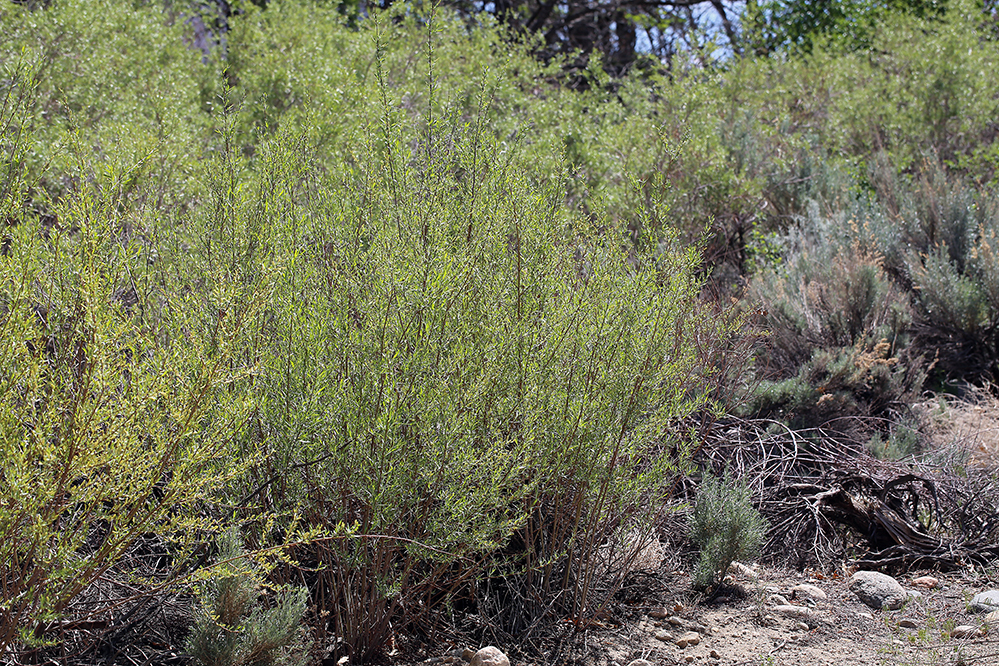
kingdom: Plantae
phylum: Tracheophyta
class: Magnoliopsida
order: Malpighiales
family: Salicaceae
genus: Salix
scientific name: Salix exigua
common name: Coyote willow
